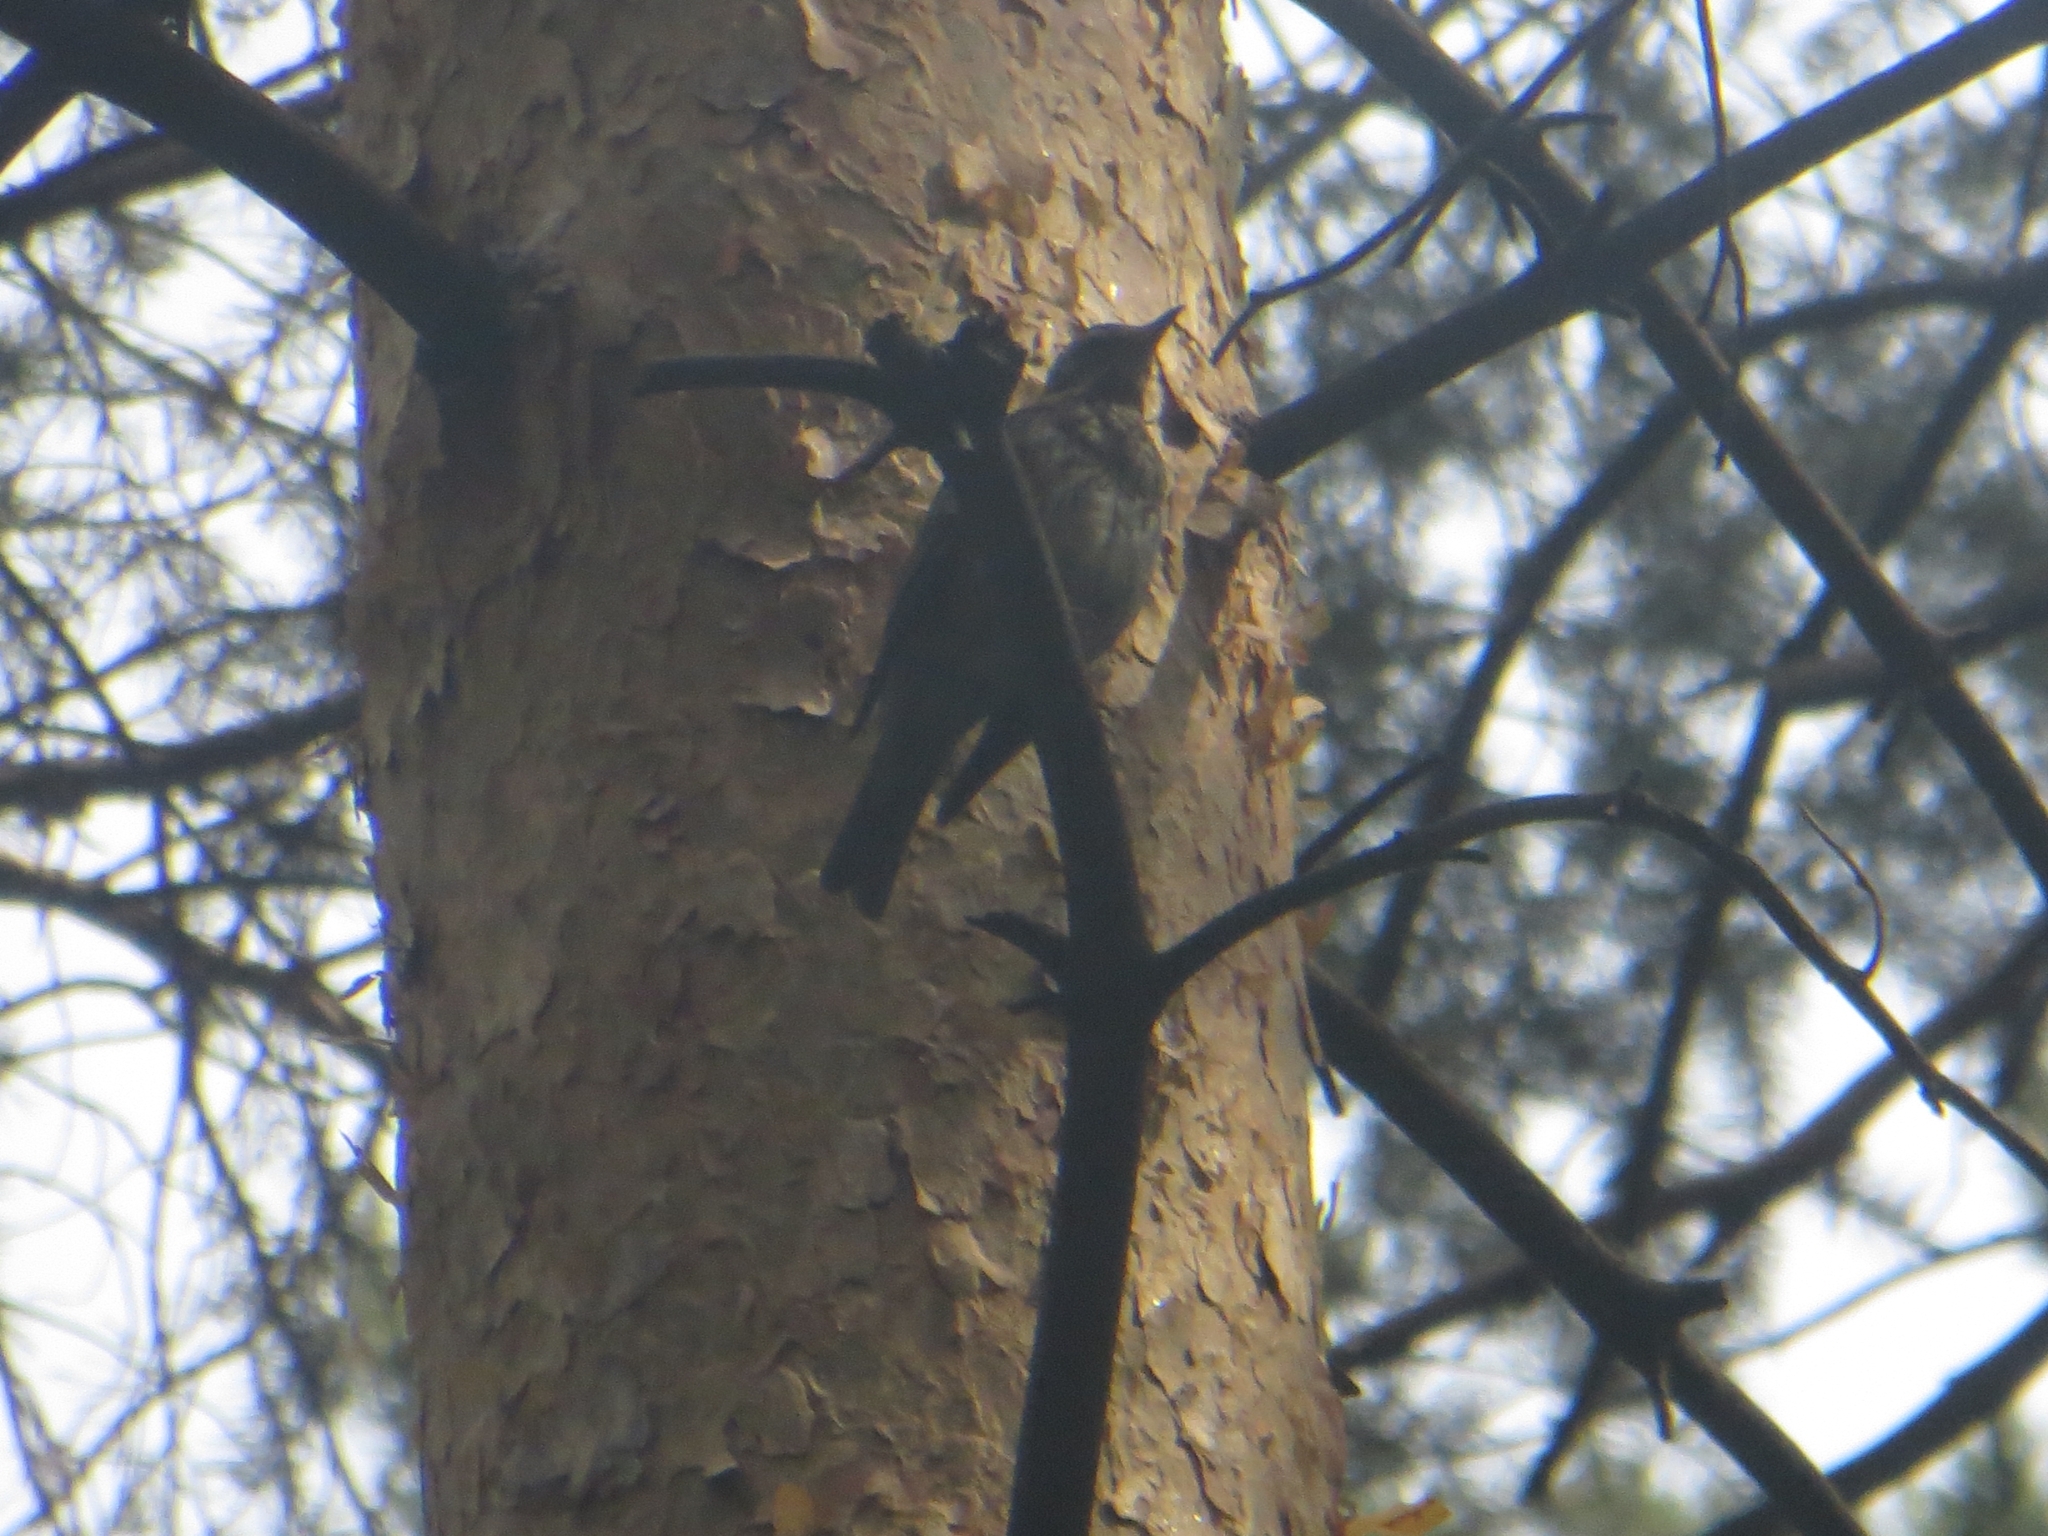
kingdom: Animalia
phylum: Chordata
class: Aves
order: Passeriformes
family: Turdidae
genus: Turdus
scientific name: Turdus iliacus
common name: Redwing
